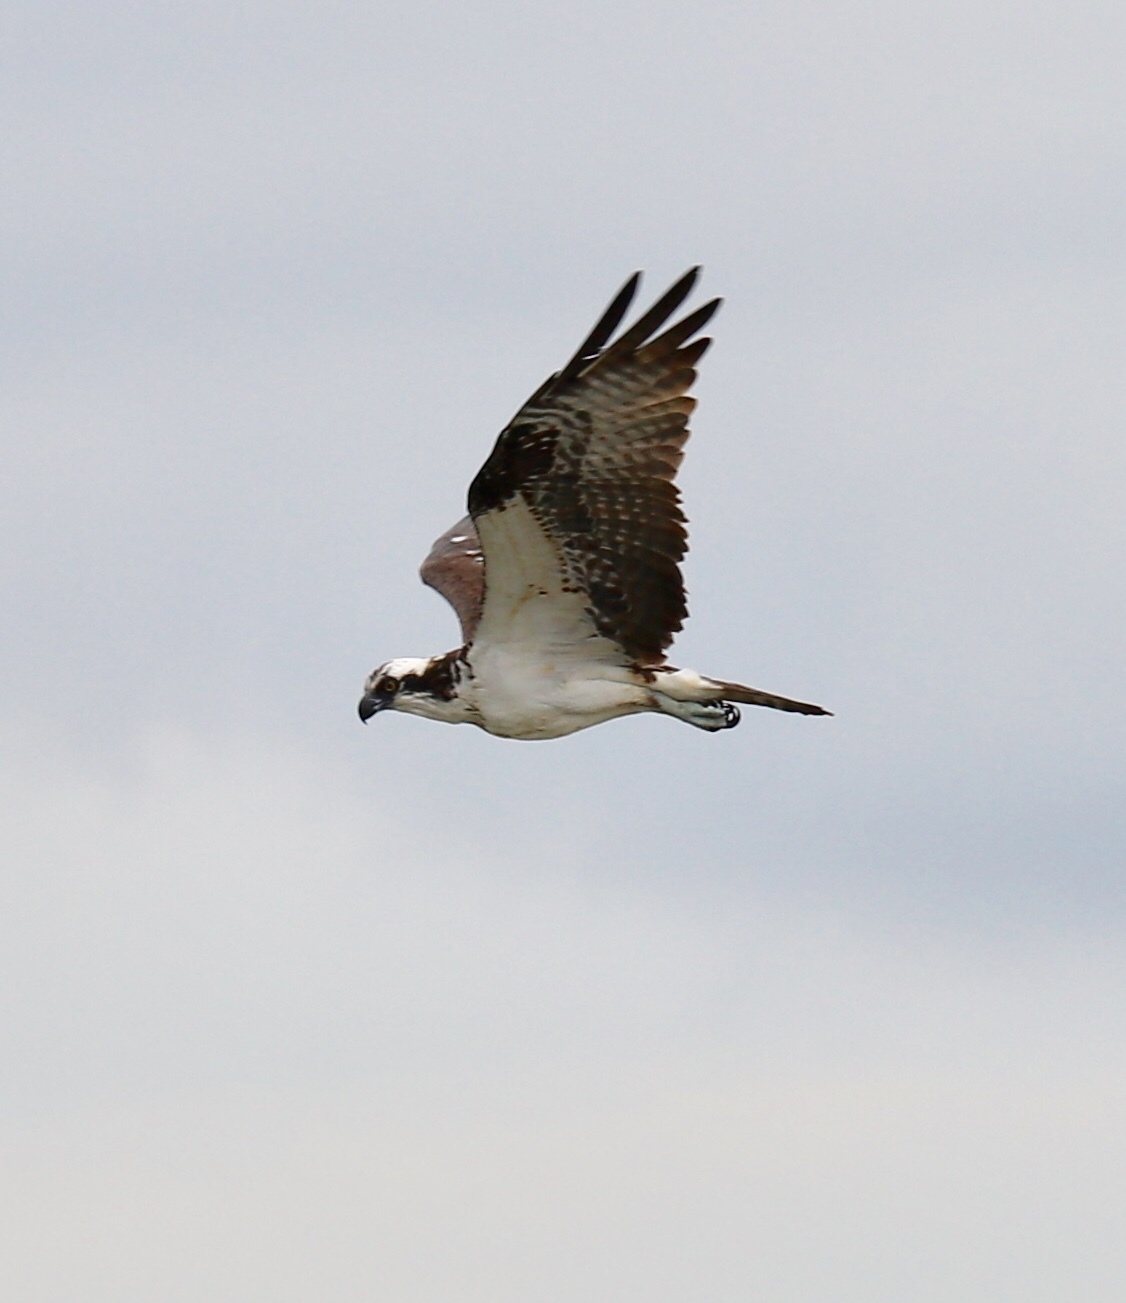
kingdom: Animalia
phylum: Chordata
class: Aves
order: Accipitriformes
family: Pandionidae
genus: Pandion
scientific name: Pandion haliaetus
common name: Osprey
